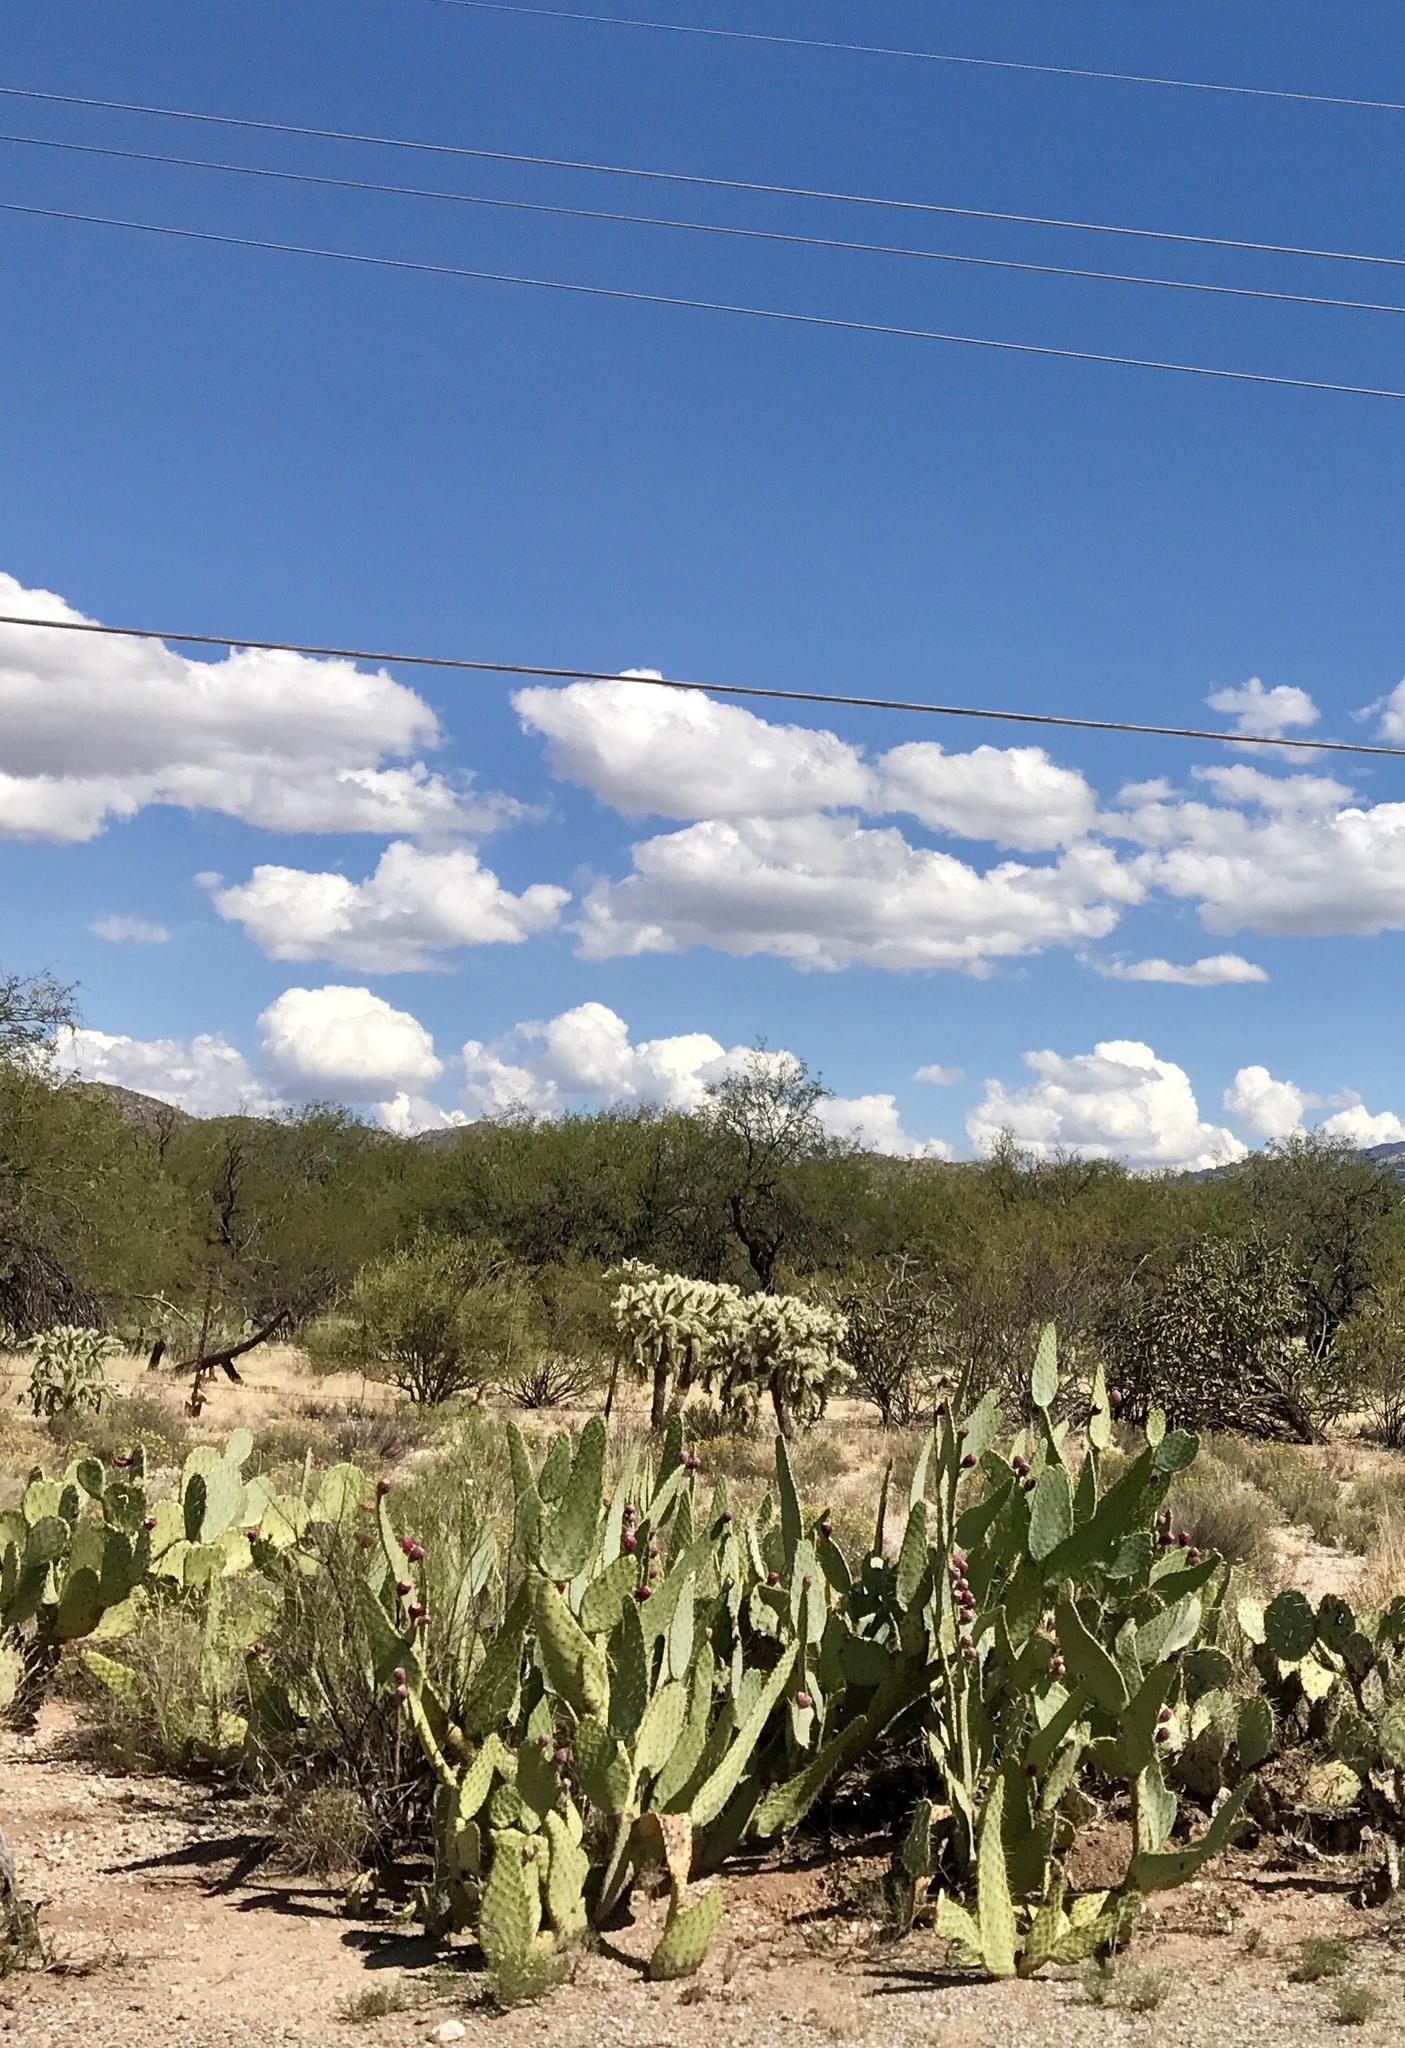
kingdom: Plantae
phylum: Tracheophyta
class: Magnoliopsida
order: Caryophyllales
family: Cactaceae
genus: Opuntia
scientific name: Opuntia engelmannii
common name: Cactus-apple
